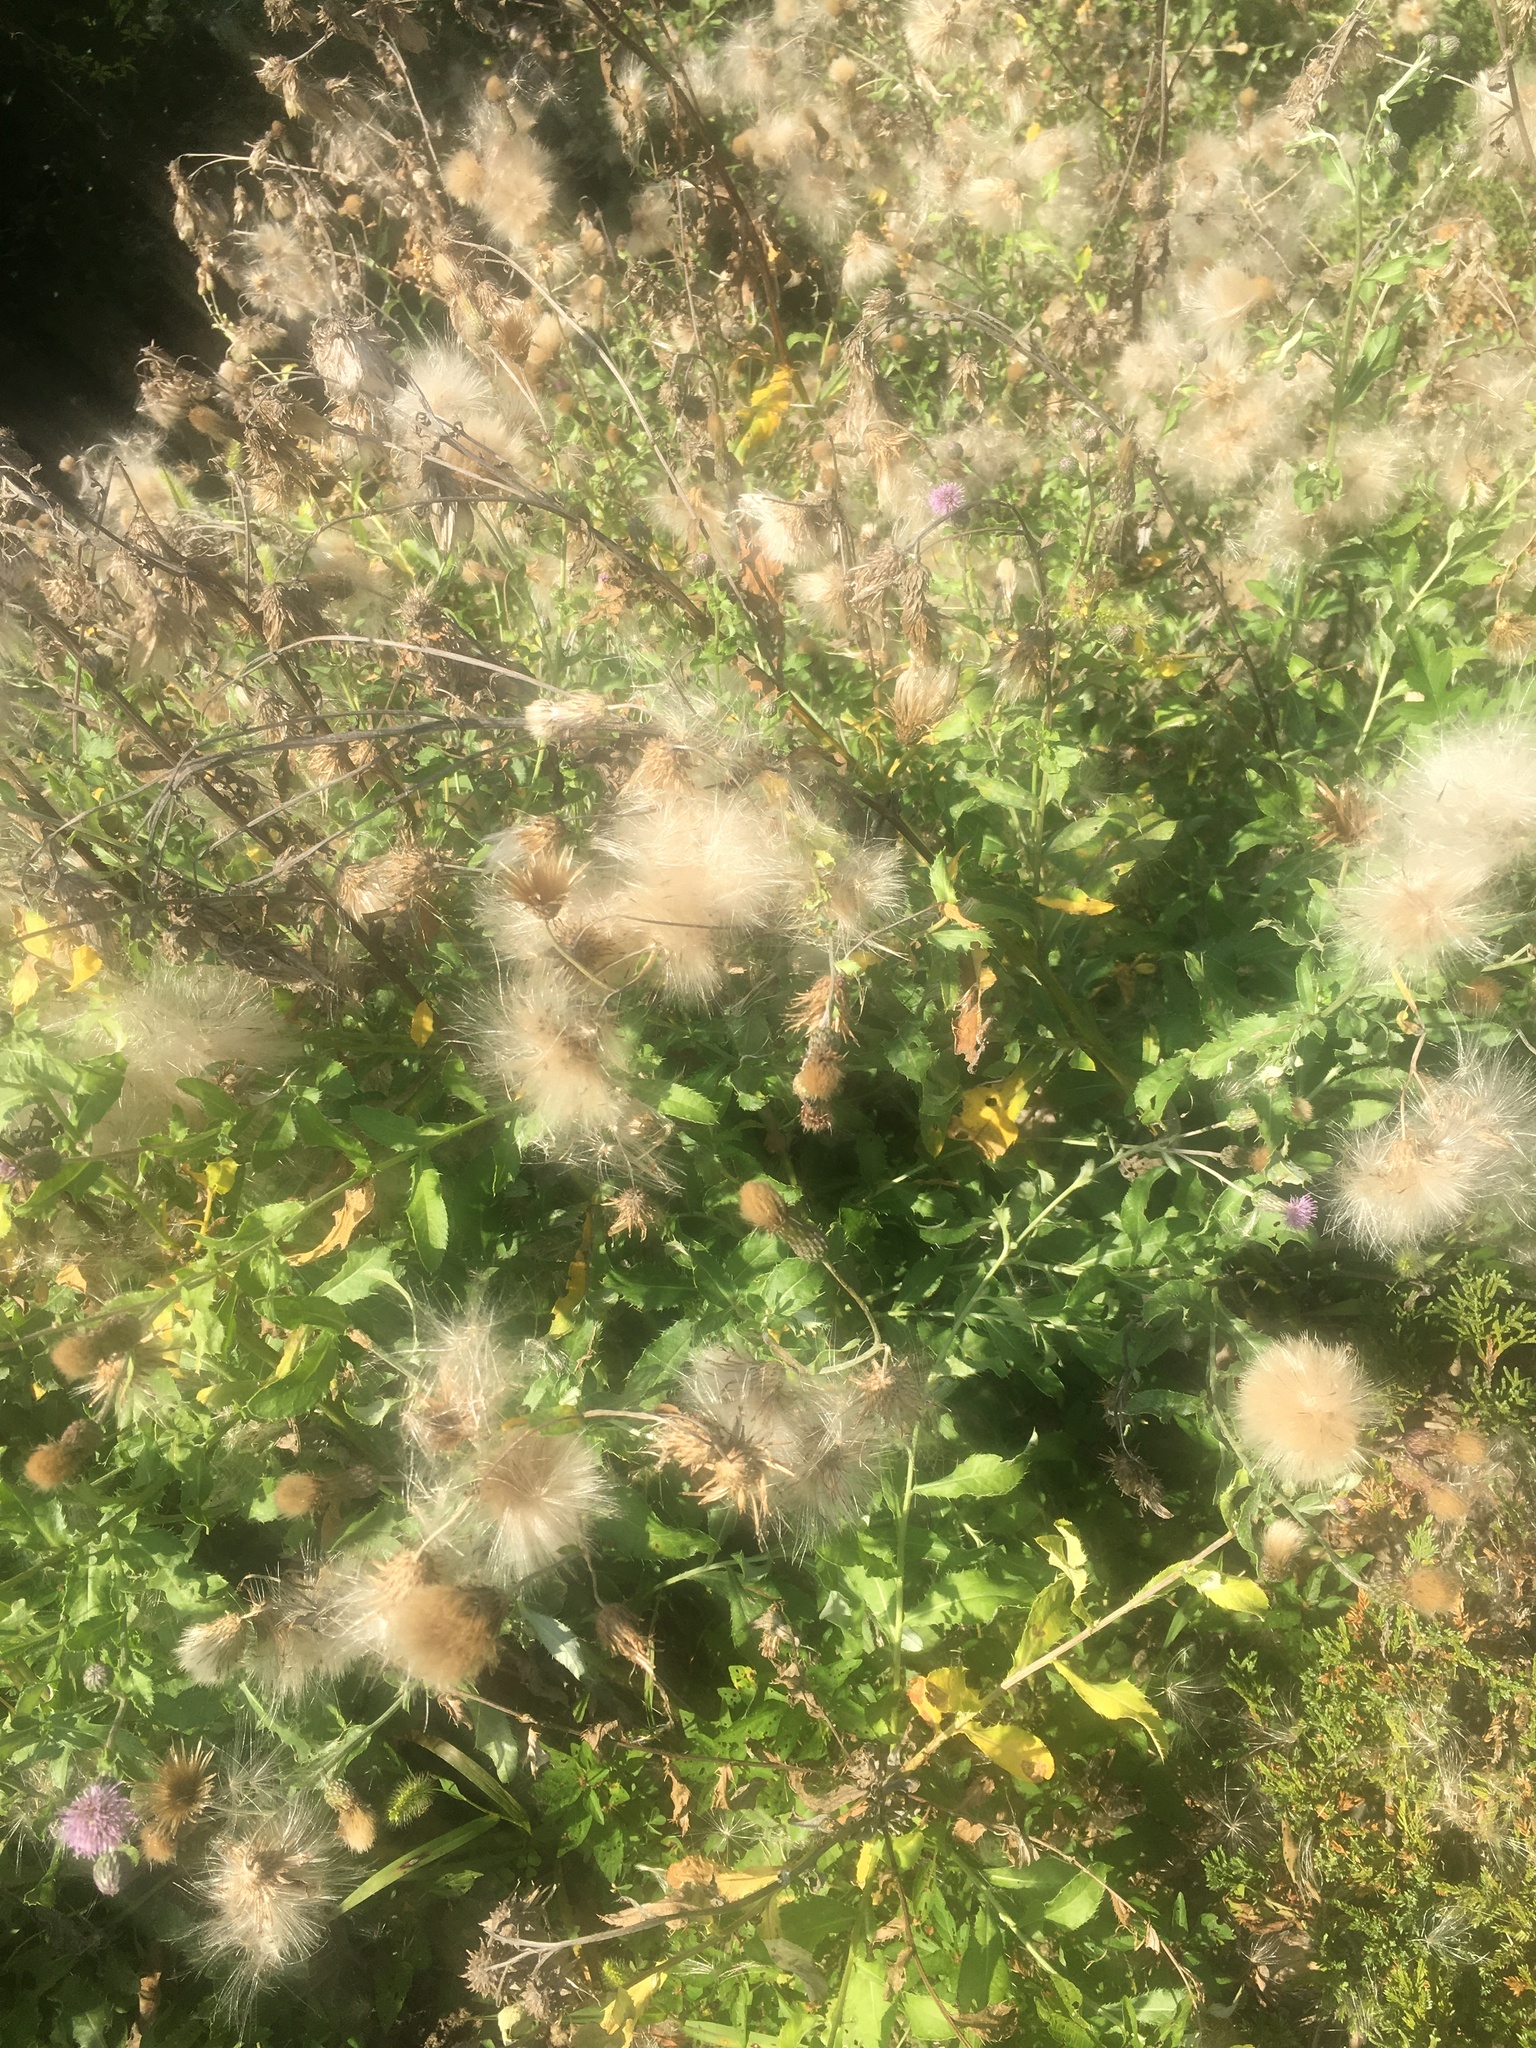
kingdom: Plantae
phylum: Tracheophyta
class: Magnoliopsida
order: Asterales
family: Asteraceae
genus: Cirsium
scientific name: Cirsium arvense
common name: Creeping thistle
